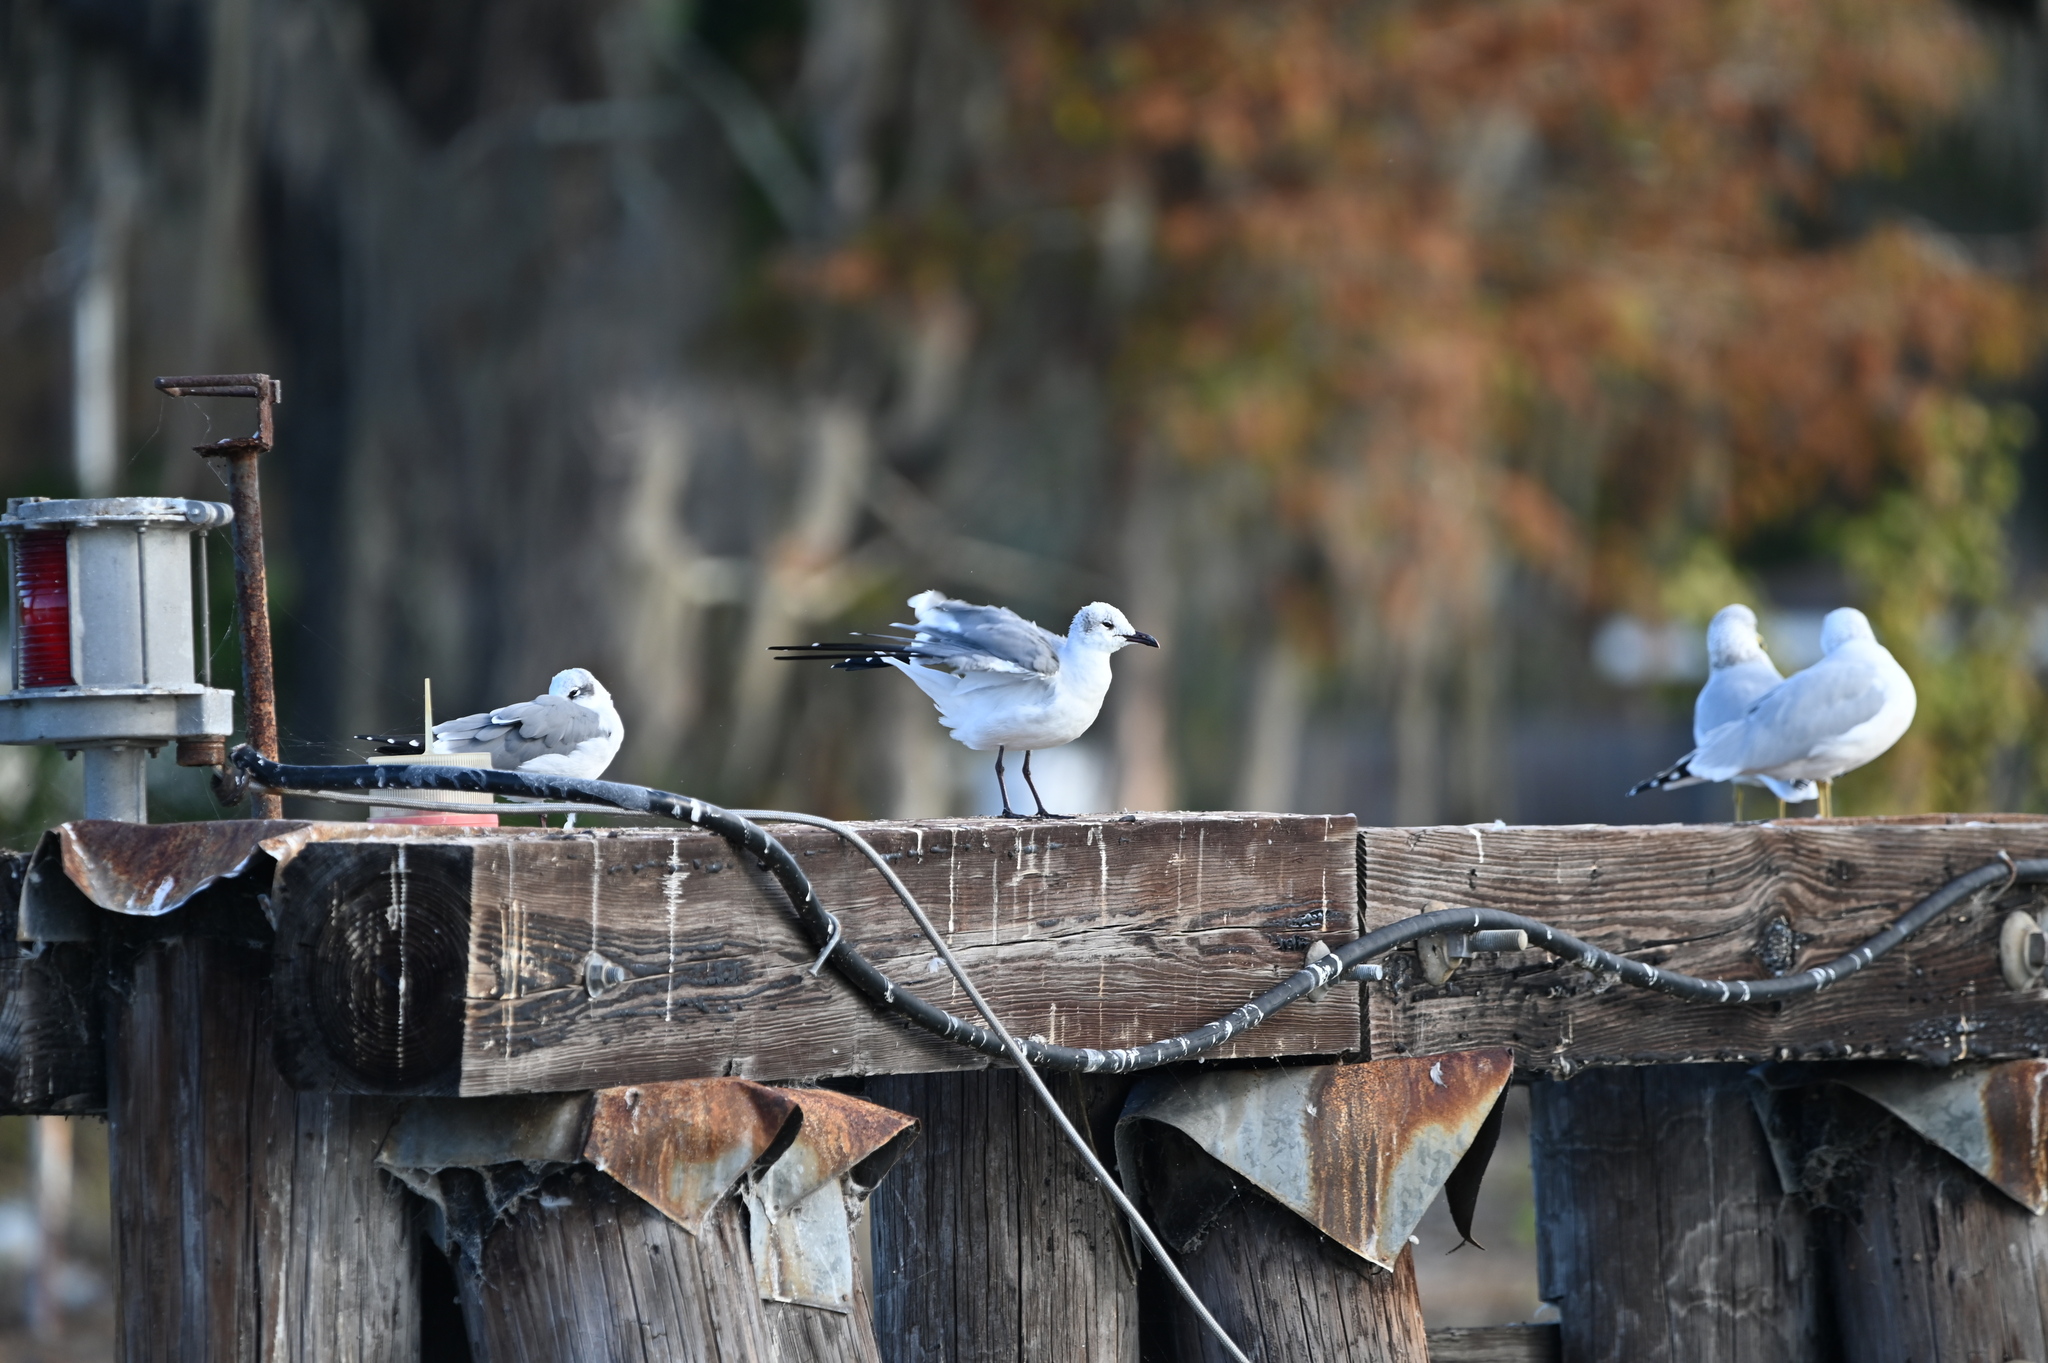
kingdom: Animalia
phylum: Chordata
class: Aves
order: Charadriiformes
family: Laridae
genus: Leucophaeus
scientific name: Leucophaeus atricilla
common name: Laughing gull
